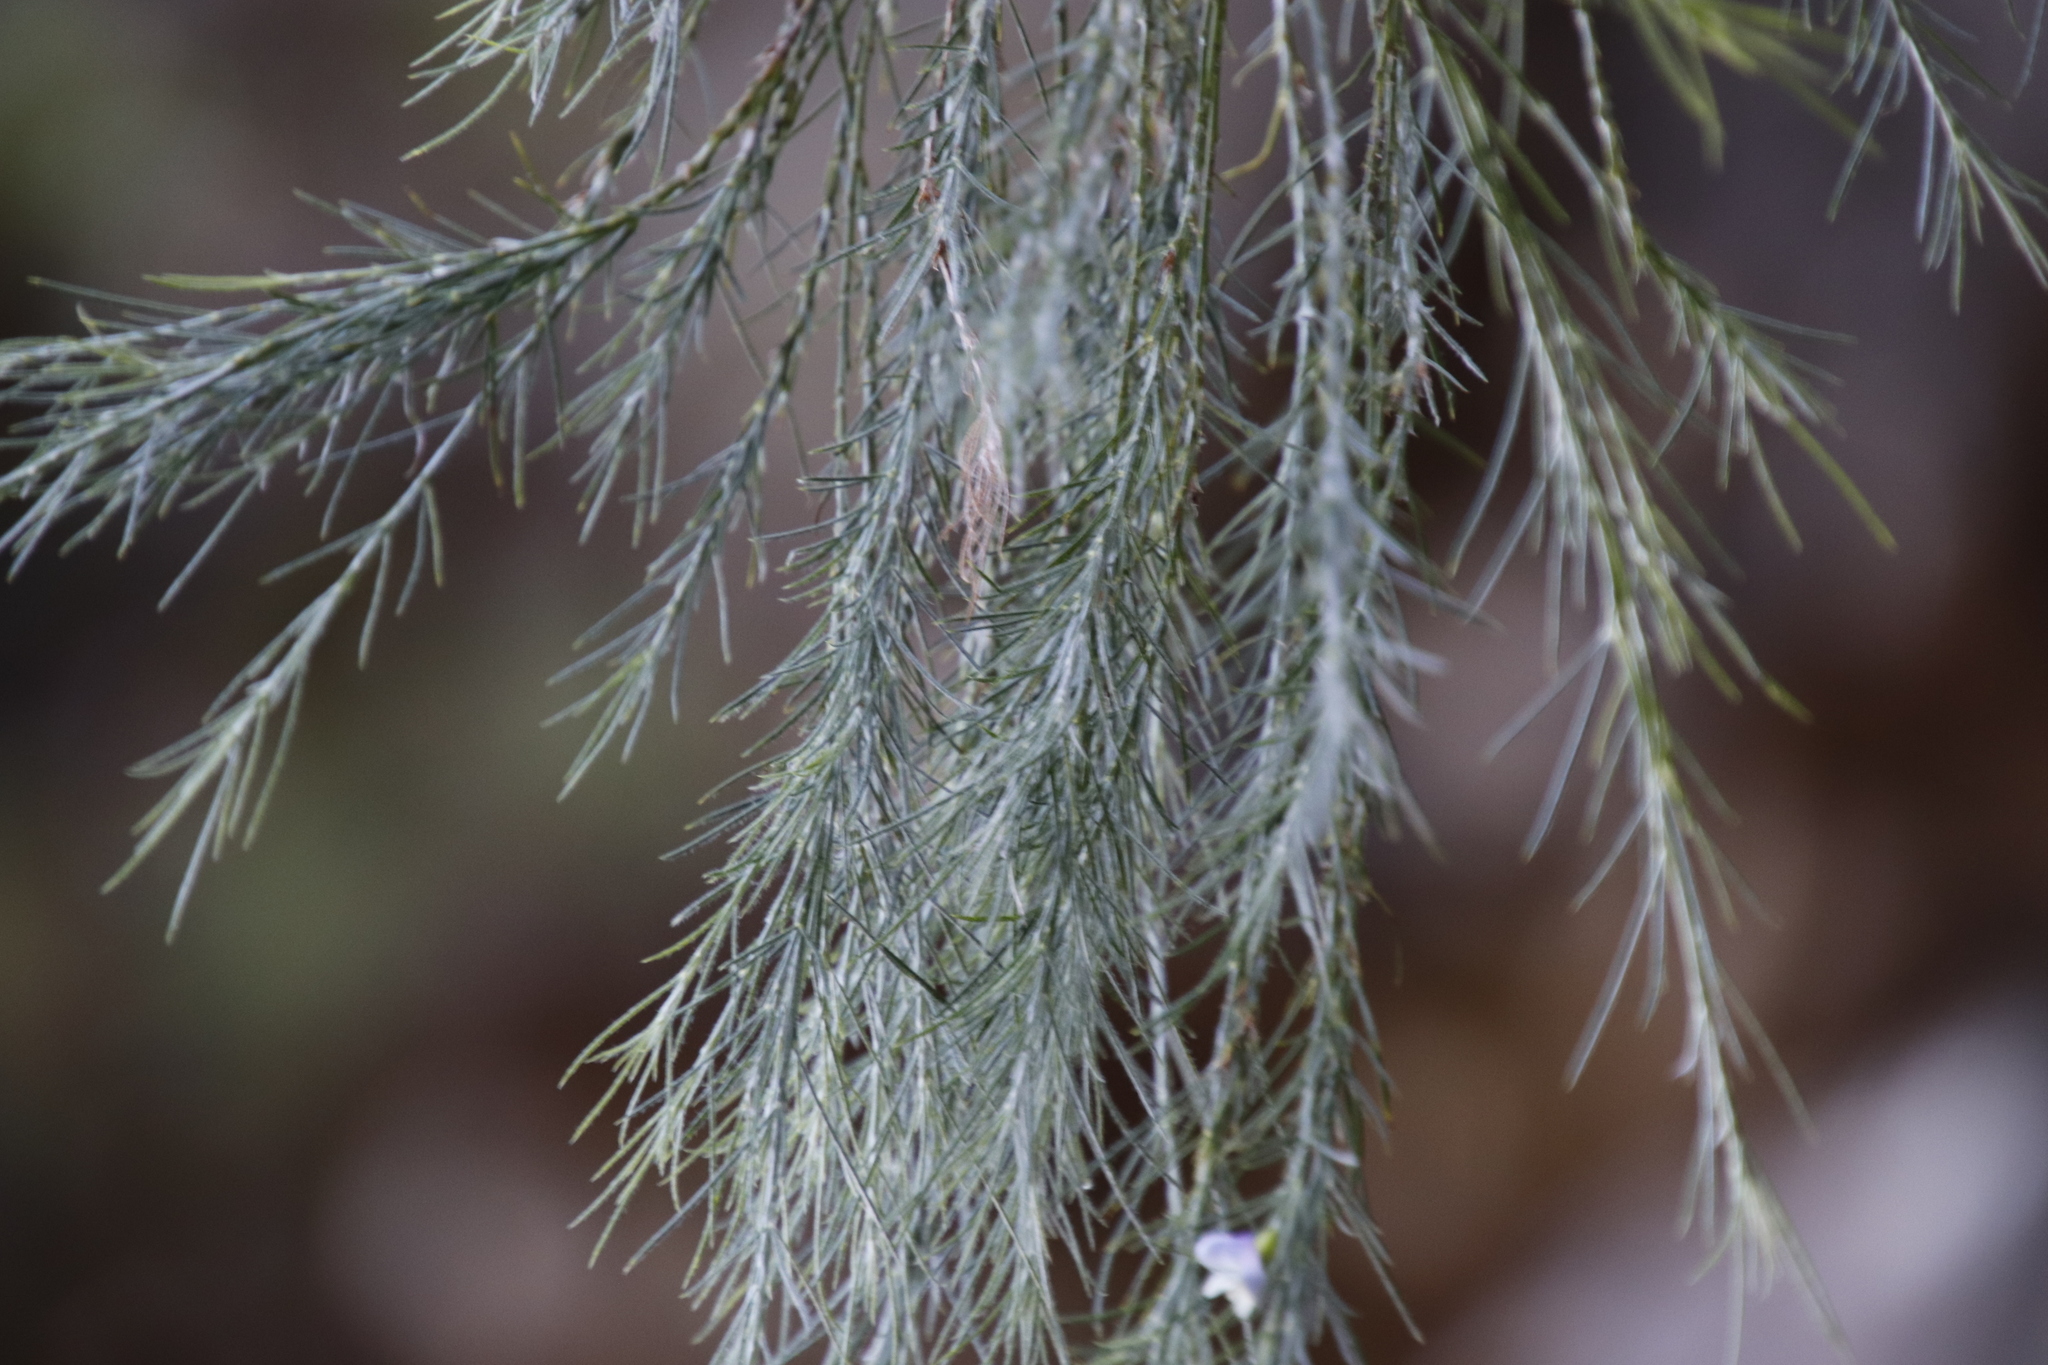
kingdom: Plantae
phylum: Tracheophyta
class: Magnoliopsida
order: Fabales
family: Fabaceae
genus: Psoralea
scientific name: Psoralea gigantea
